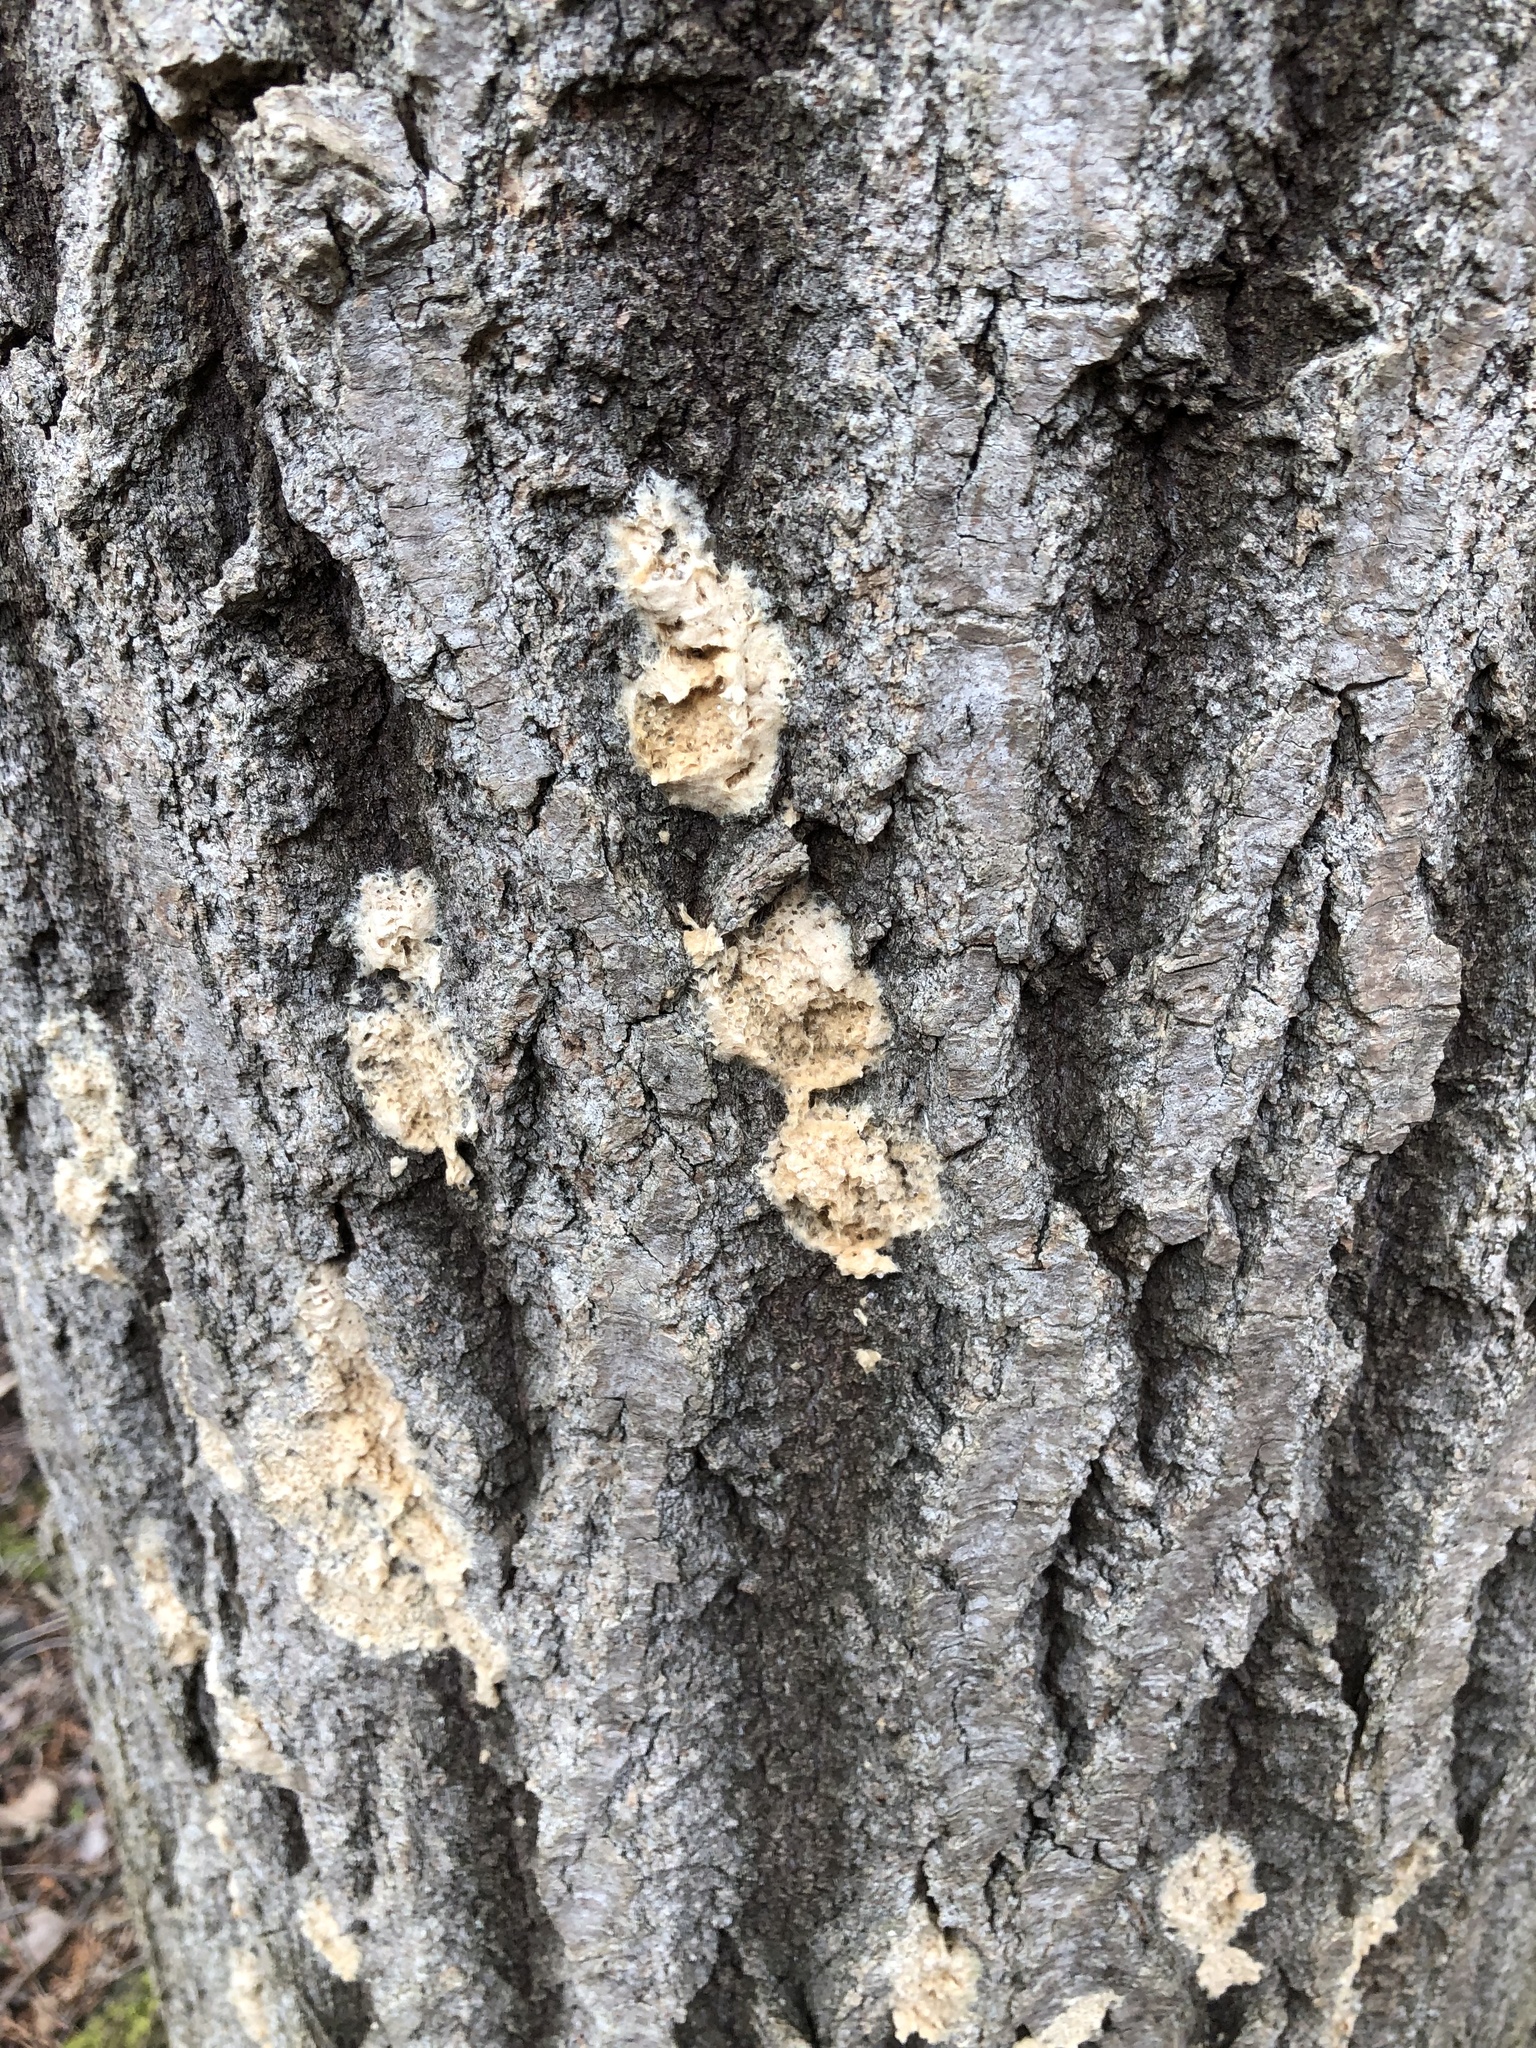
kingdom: Animalia
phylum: Arthropoda
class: Insecta
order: Lepidoptera
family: Erebidae
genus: Lymantria
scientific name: Lymantria dispar
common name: Gypsy moth
